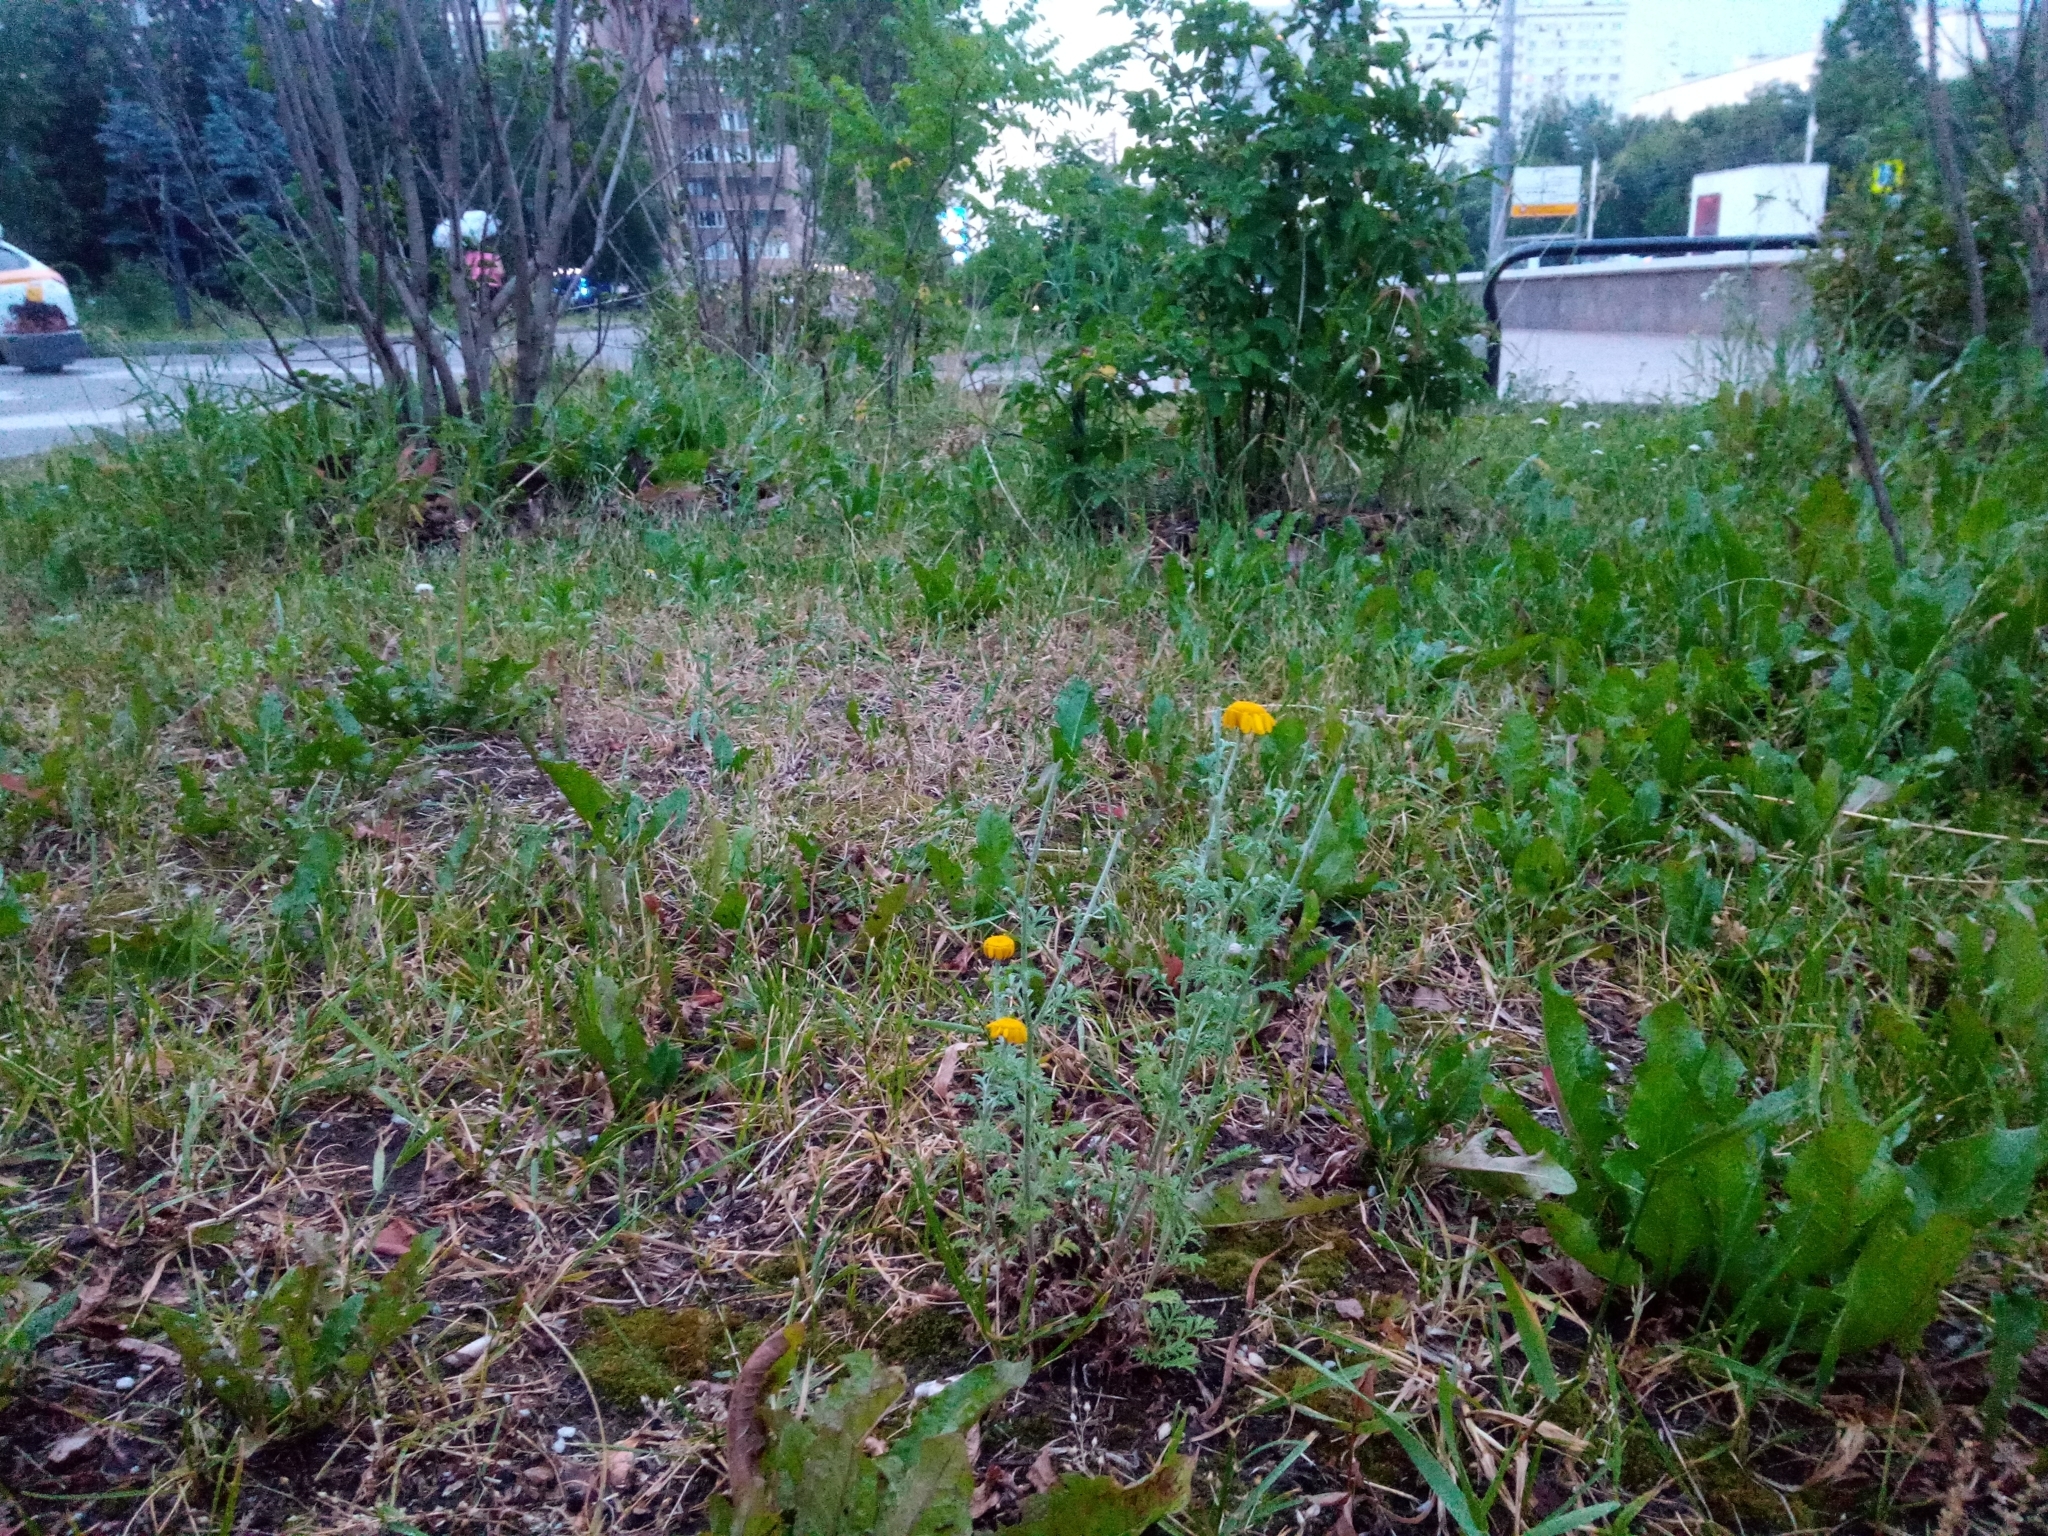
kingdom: Plantae
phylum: Tracheophyta
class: Magnoliopsida
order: Asterales
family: Asteraceae
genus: Cota
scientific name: Cota tinctoria
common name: Golden chamomile
